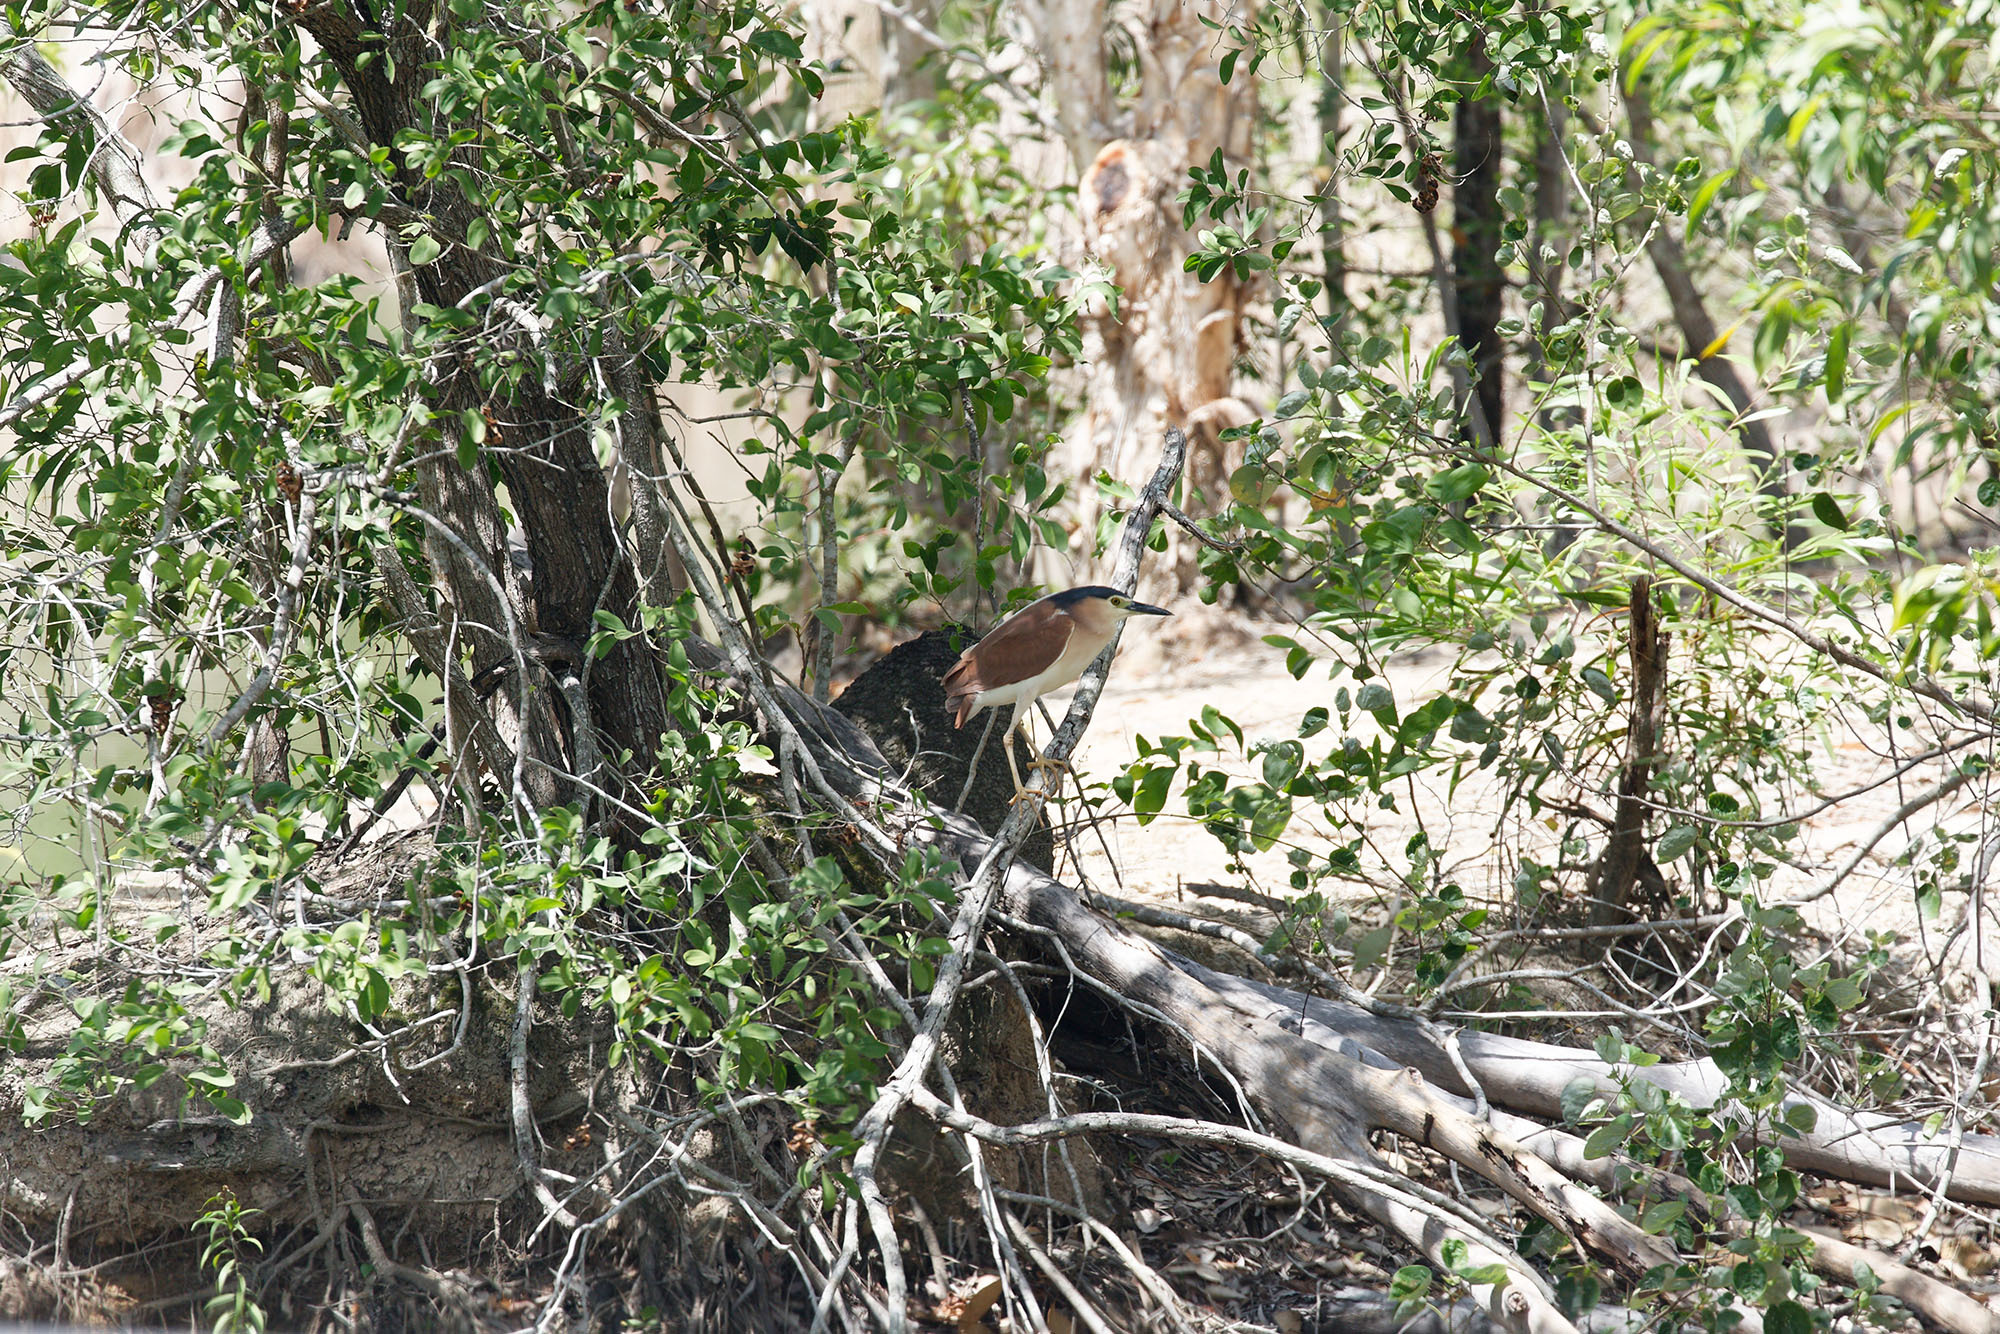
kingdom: Animalia
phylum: Chordata
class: Aves
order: Pelecaniformes
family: Ardeidae
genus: Nycticorax
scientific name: Nycticorax caledonicus
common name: Rufous night-heron
